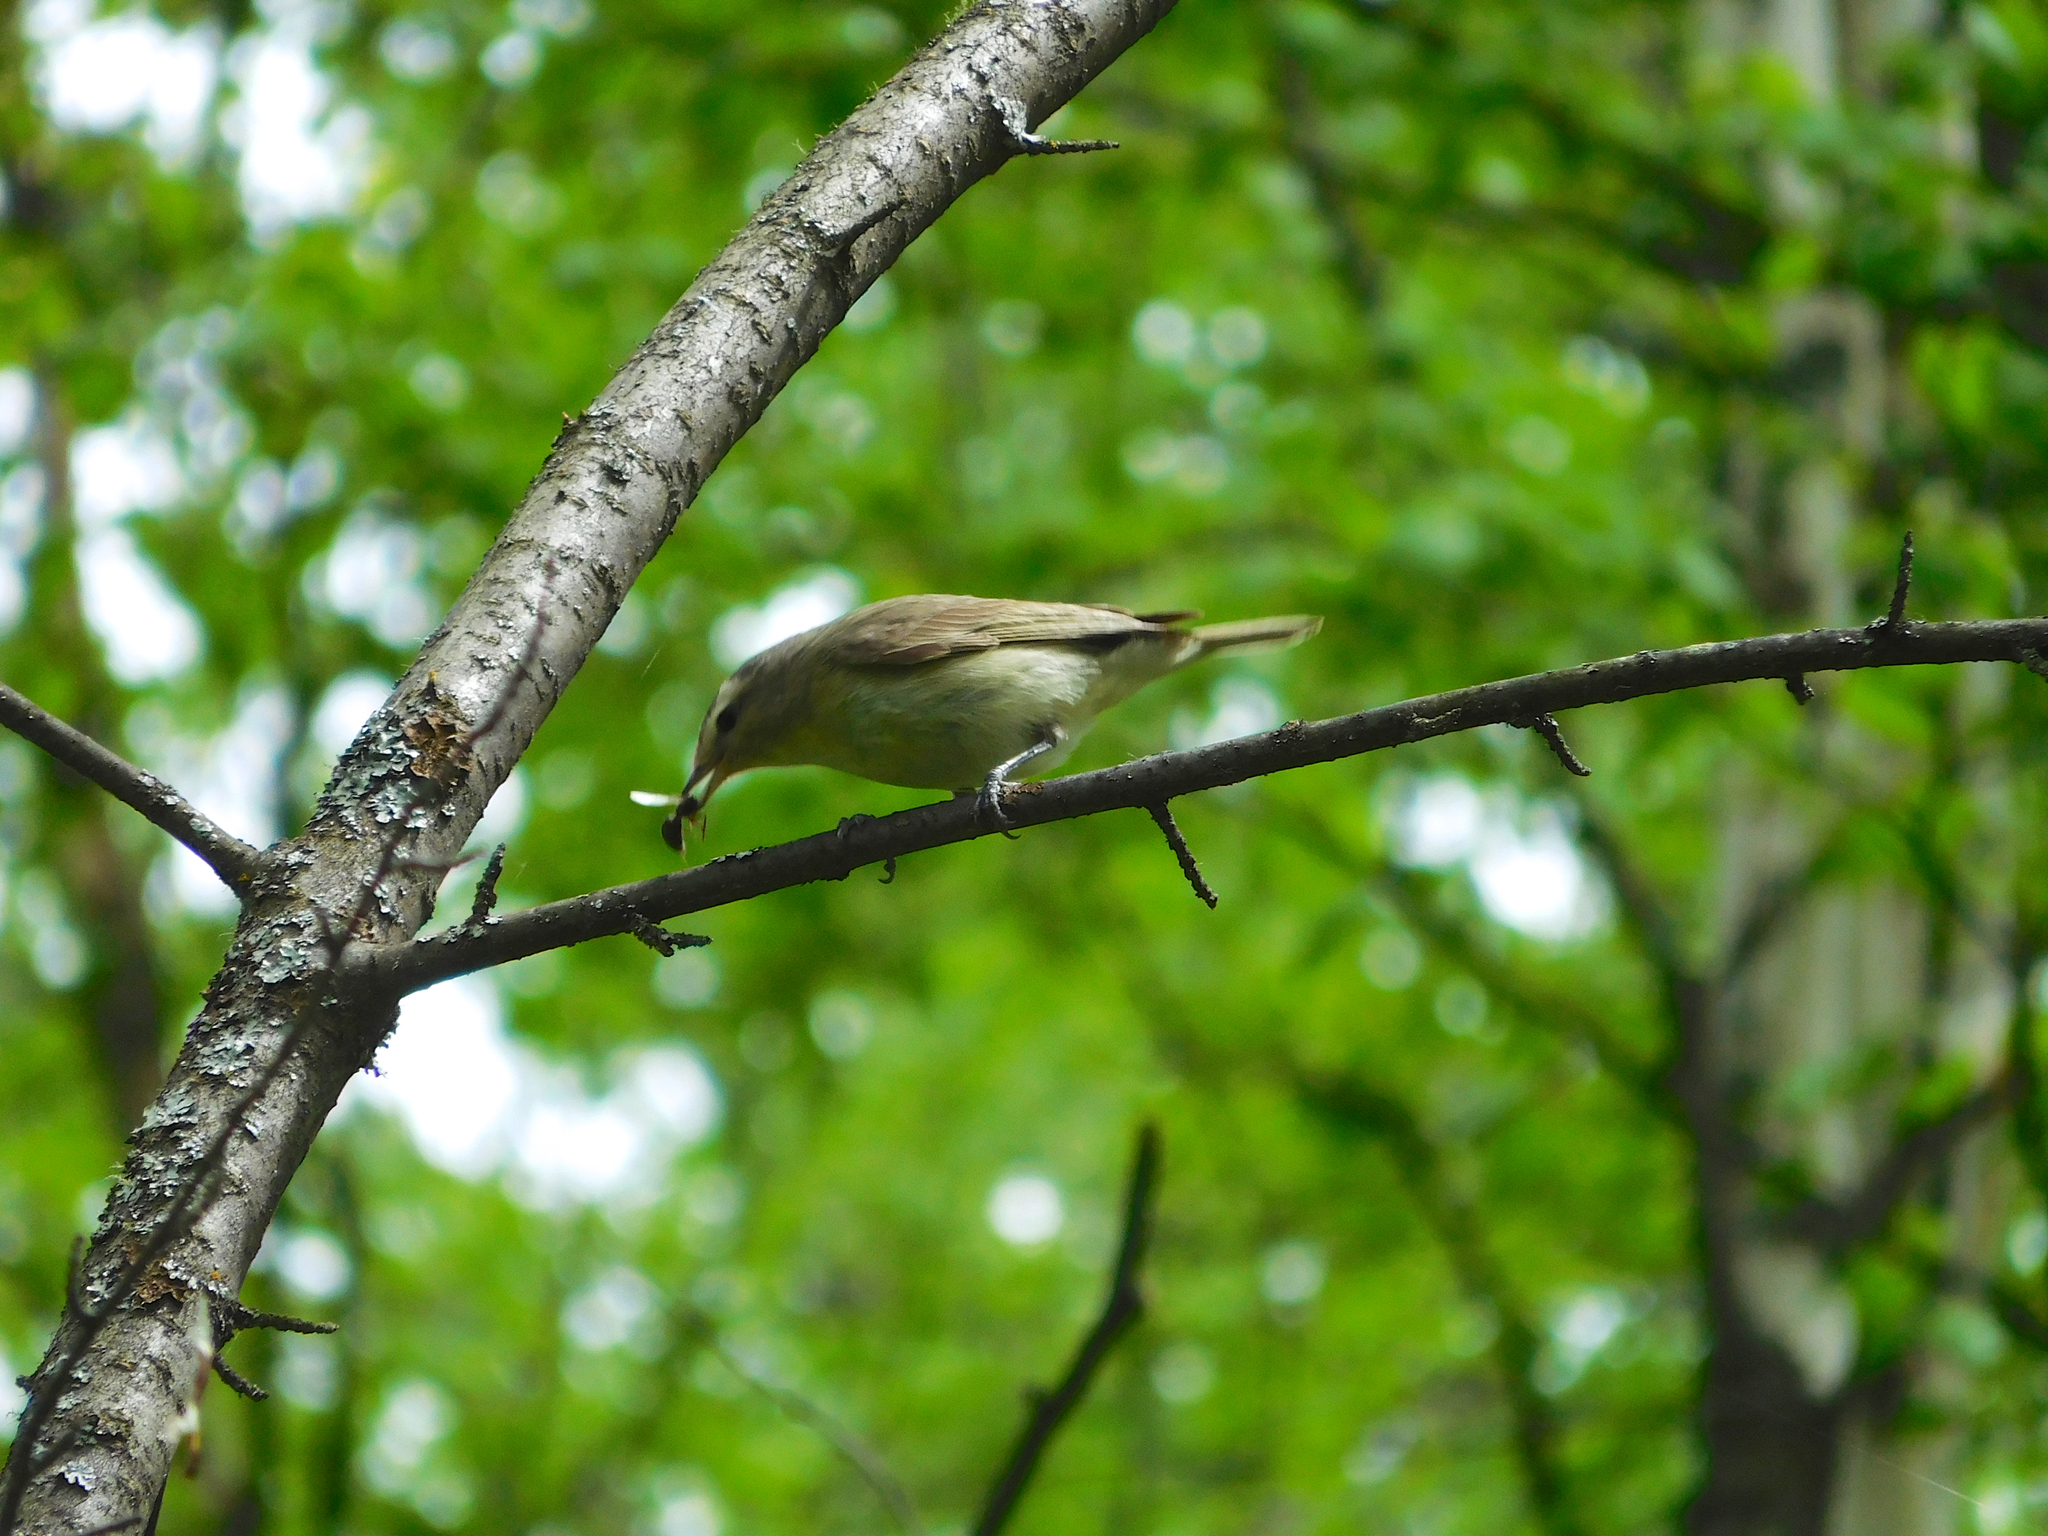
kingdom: Animalia
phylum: Chordata
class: Aves
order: Passeriformes
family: Vireonidae
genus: Vireo
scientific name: Vireo gilvus
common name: Warbling vireo
